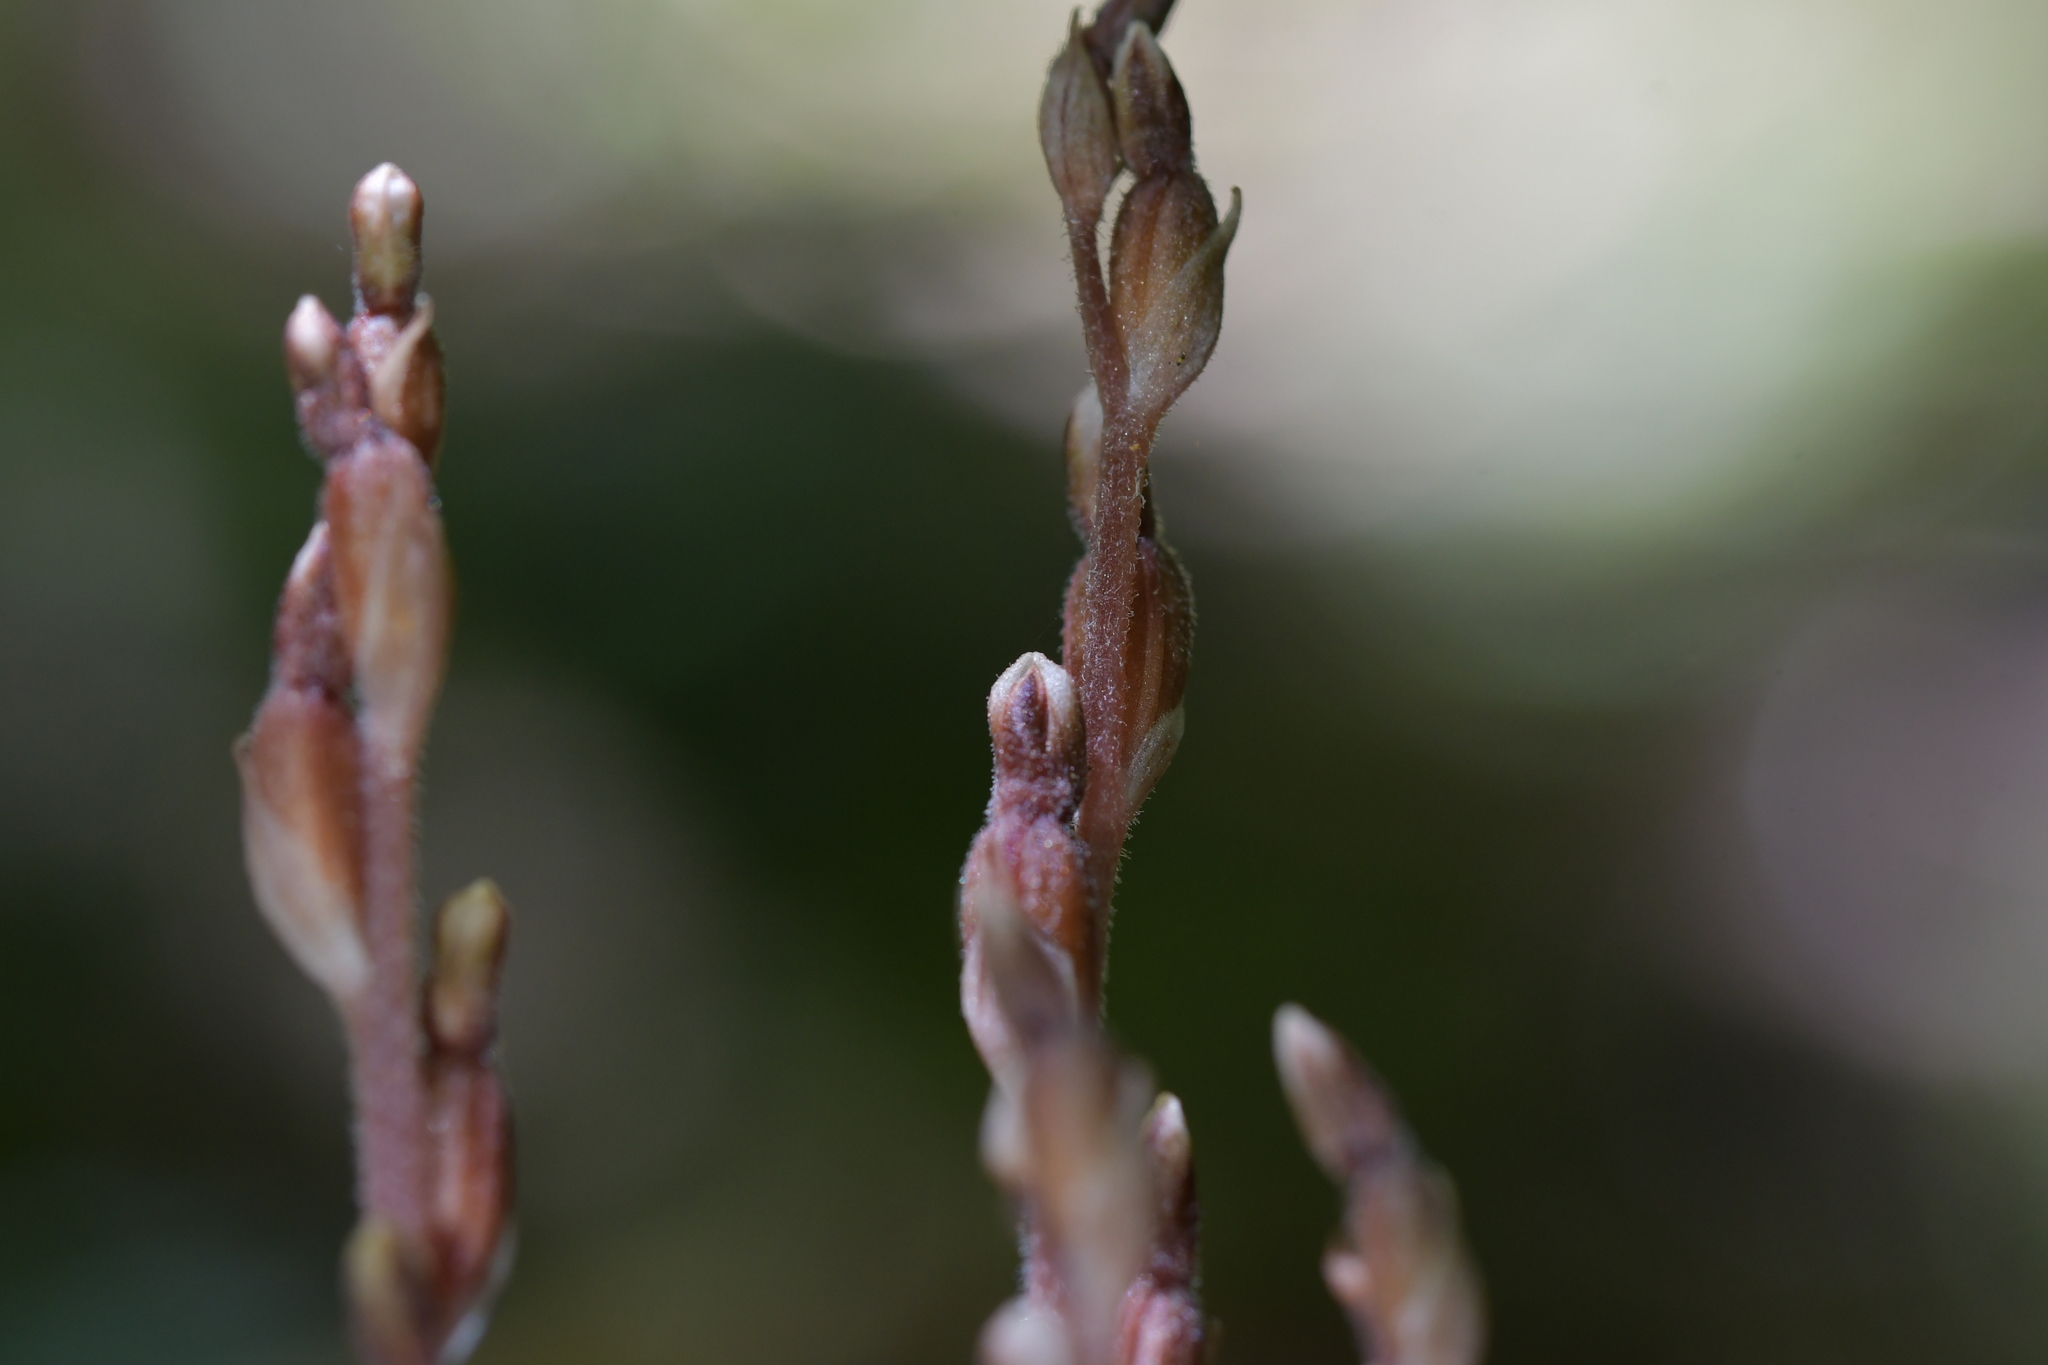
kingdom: Plantae
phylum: Tracheophyta
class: Liliopsida
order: Asparagales
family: Orchidaceae
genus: Danhatchia
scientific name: Danhatchia australis
